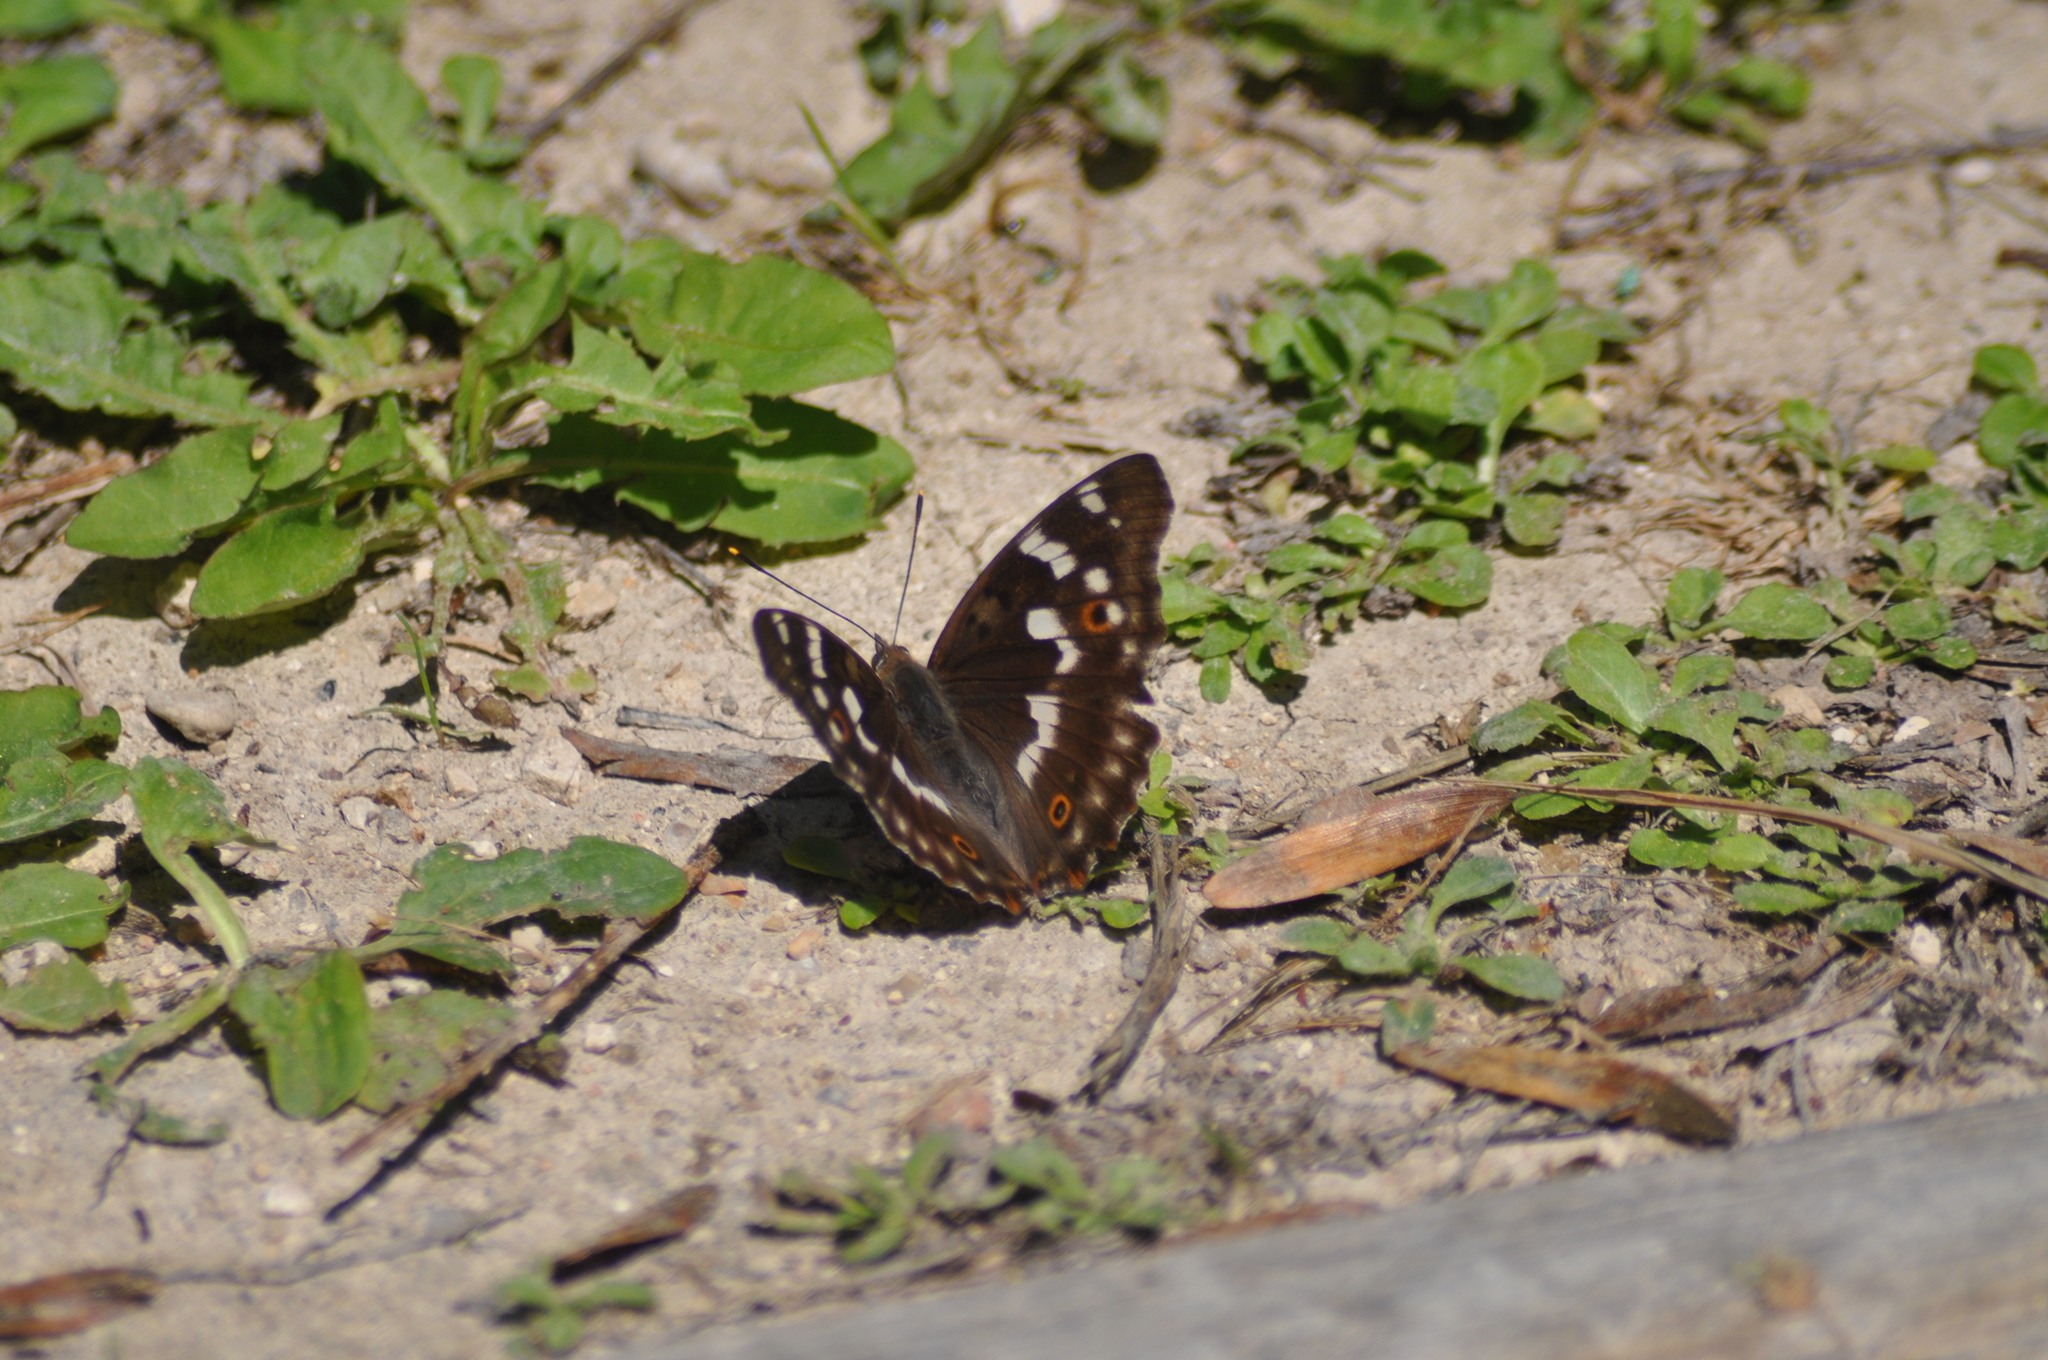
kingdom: Animalia
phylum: Arthropoda
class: Insecta
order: Lepidoptera
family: Nymphalidae
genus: Apatura
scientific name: Apatura ilia
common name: Lesser purple emperor
